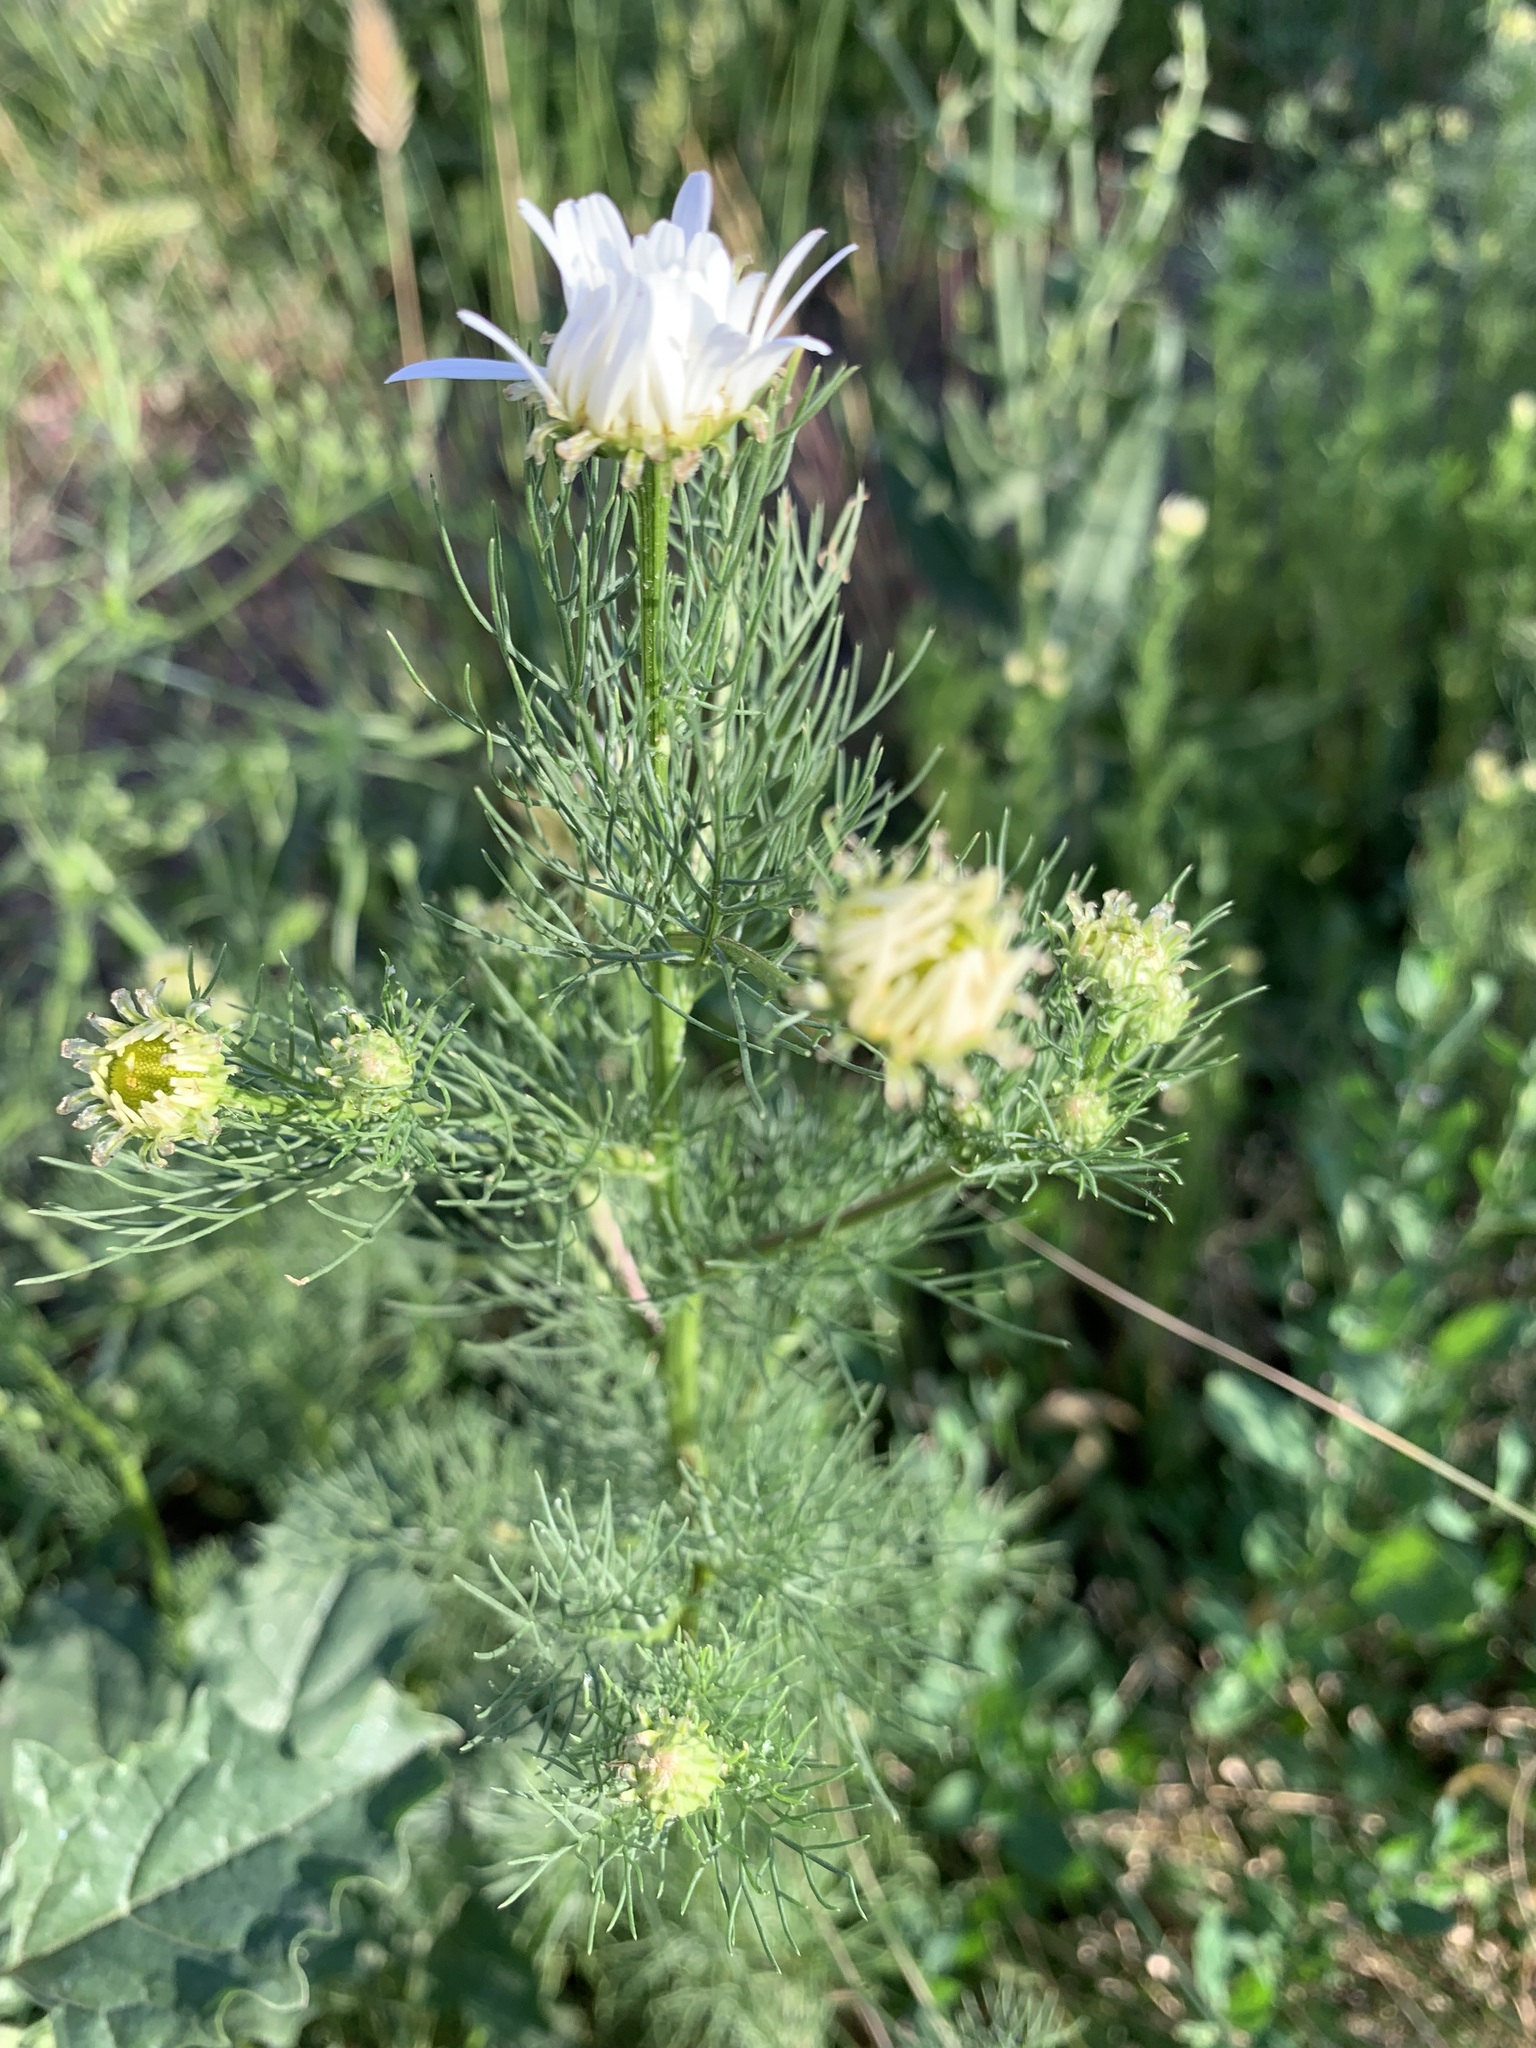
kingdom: Plantae
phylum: Tracheophyta
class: Magnoliopsida
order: Asterales
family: Asteraceae
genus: Tripleurospermum
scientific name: Tripleurospermum inodorum
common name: Scentless mayweed
